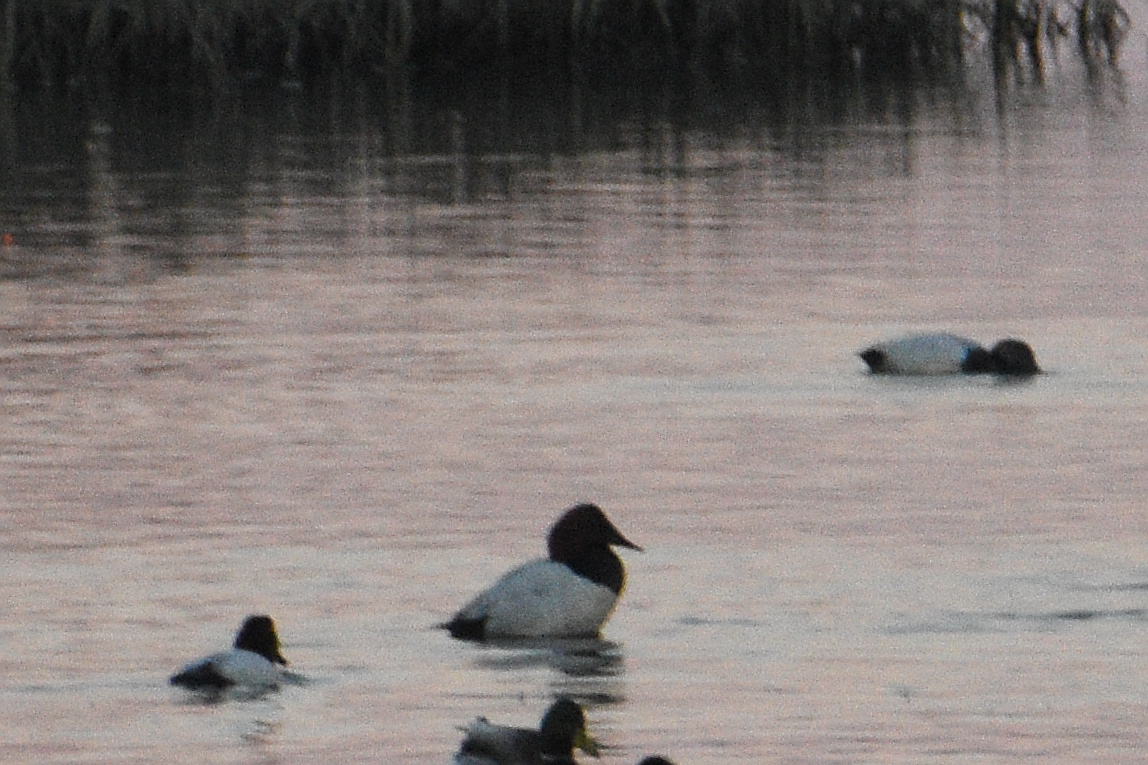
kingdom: Animalia
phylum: Chordata
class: Aves
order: Anseriformes
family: Anatidae
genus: Aythya
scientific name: Aythya valisineria
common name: Canvasback
